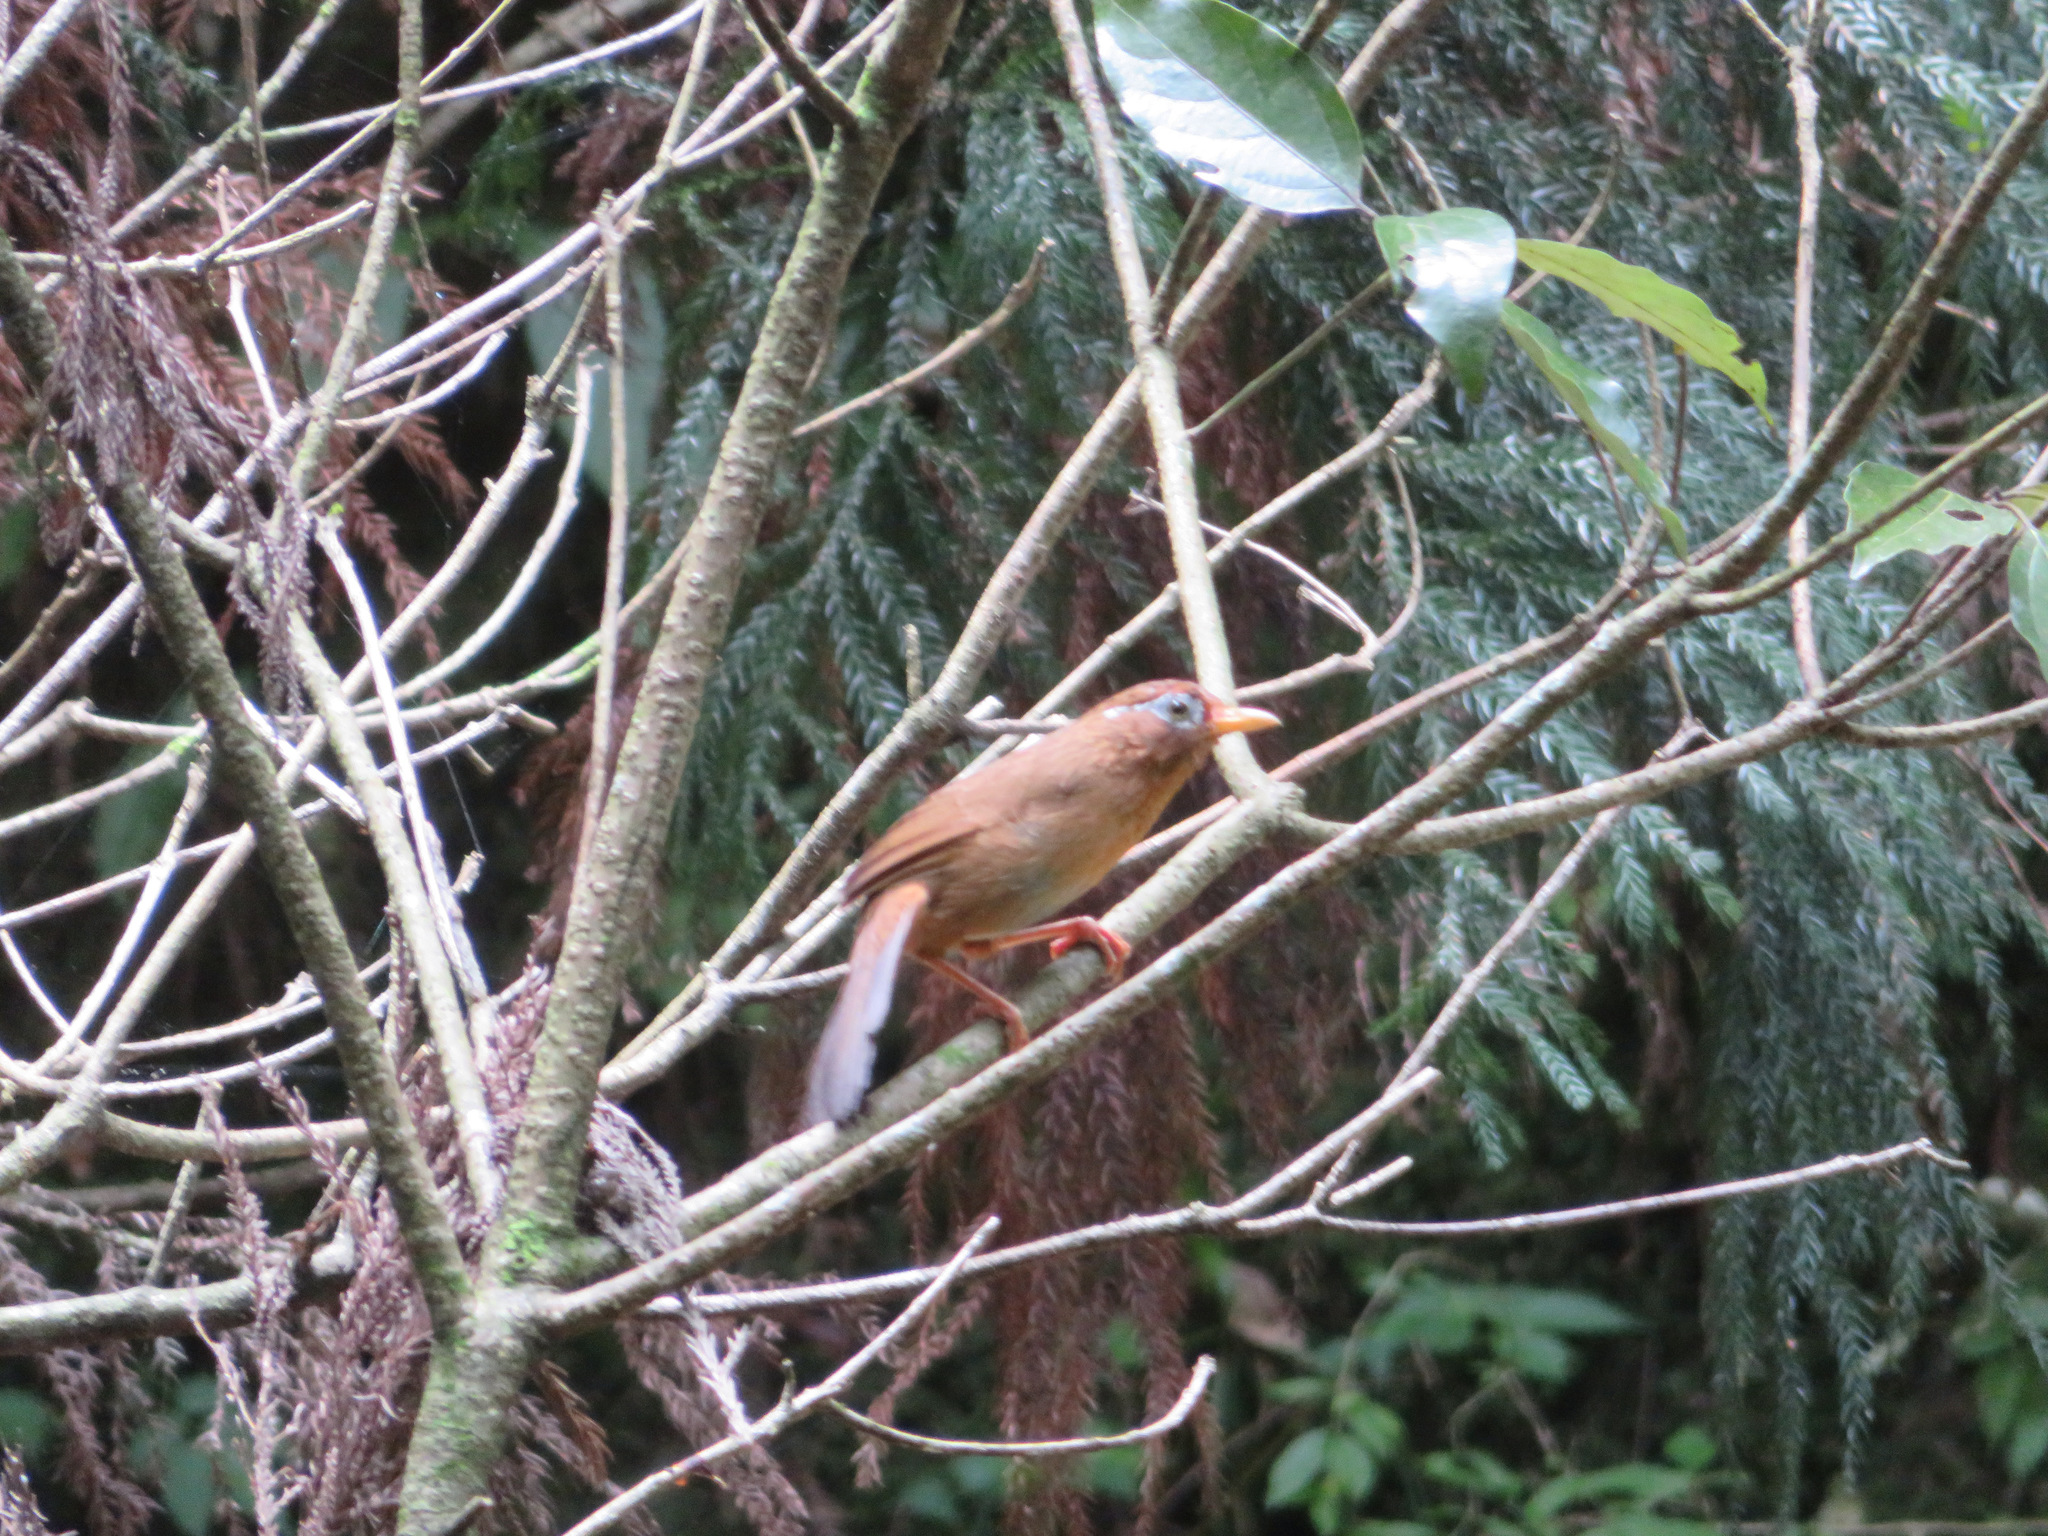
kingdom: Animalia
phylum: Chordata
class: Aves
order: Passeriformes
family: Leiothrichidae
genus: Garrulax
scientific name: Garrulax canorus
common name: Chinese hwamei
